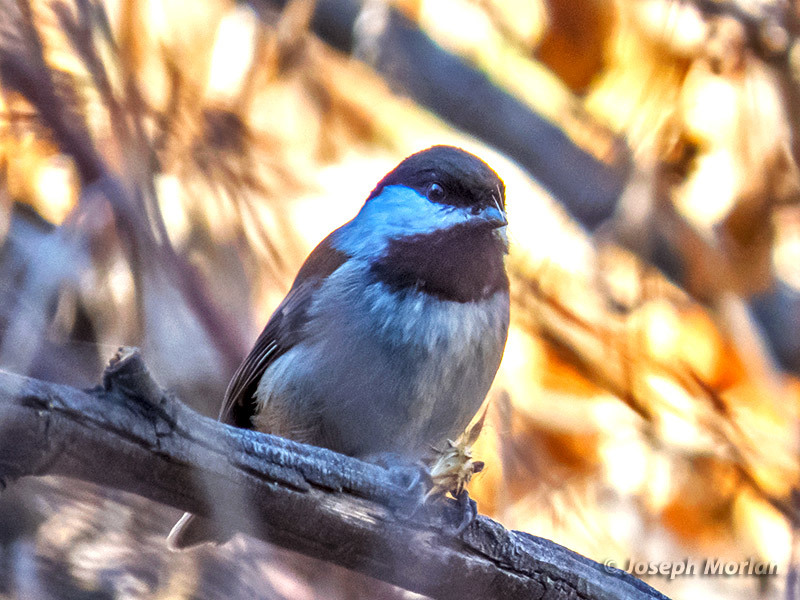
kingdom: Animalia
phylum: Chordata
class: Aves
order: Passeriformes
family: Paridae
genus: Poecile
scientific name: Poecile rufescens
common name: Chestnut-backed chickadee
